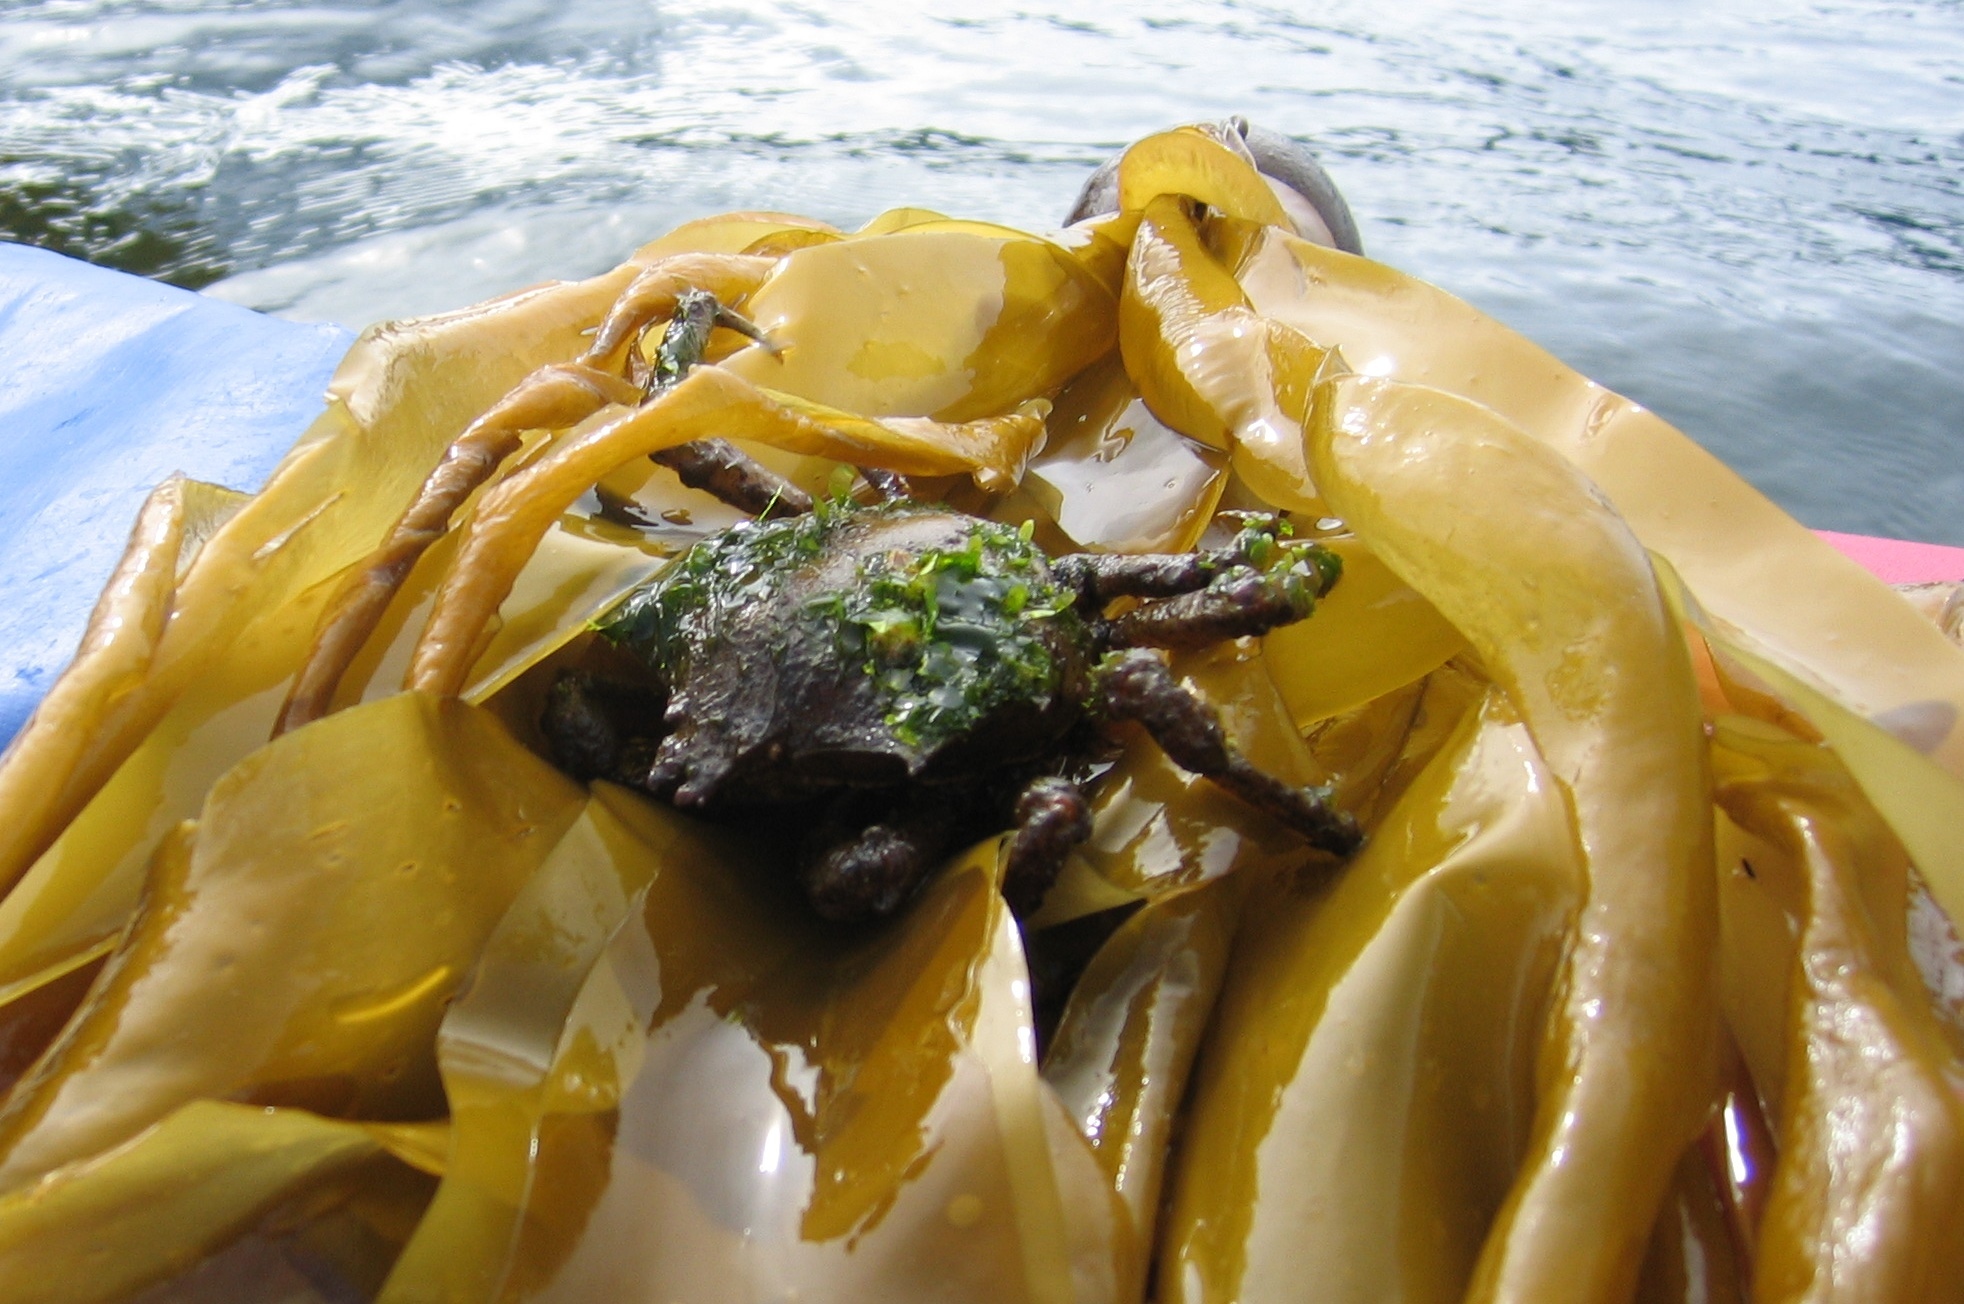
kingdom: Animalia
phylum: Arthropoda
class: Malacostraca
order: Decapoda
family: Epialtidae
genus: Pugettia
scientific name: Pugettia producta
